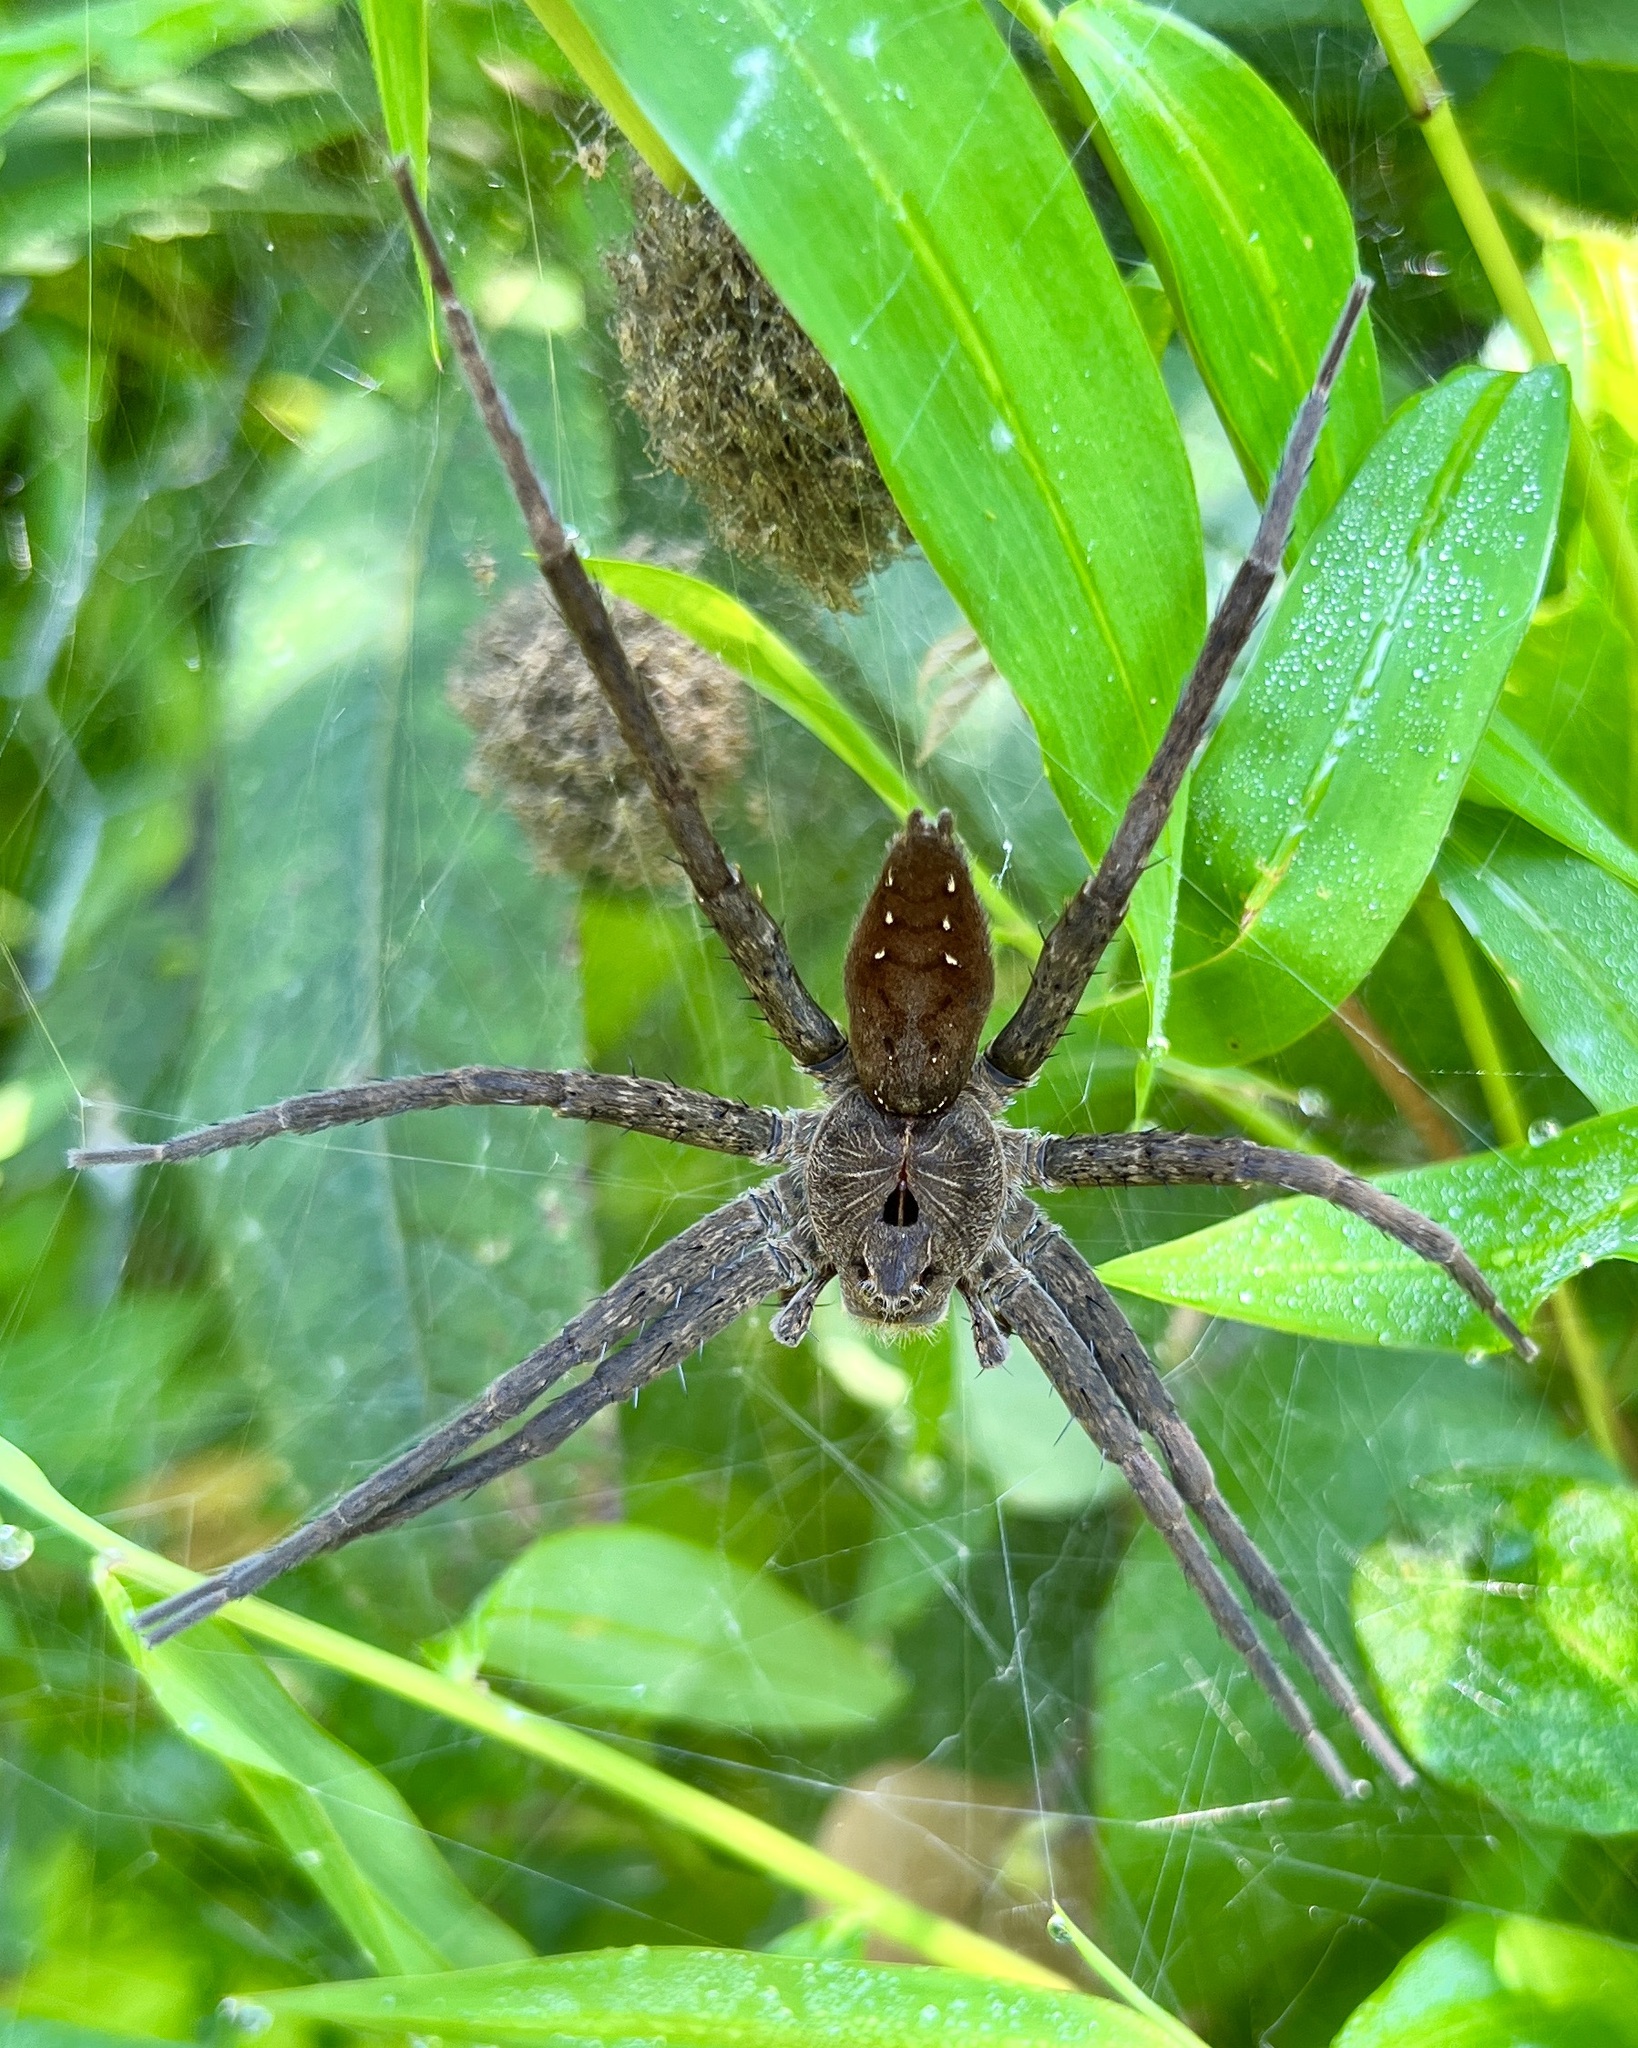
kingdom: Animalia
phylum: Arthropoda
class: Arachnida
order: Araneae
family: Pisauridae
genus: Dolomedes
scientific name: Dolomedes vittatus
